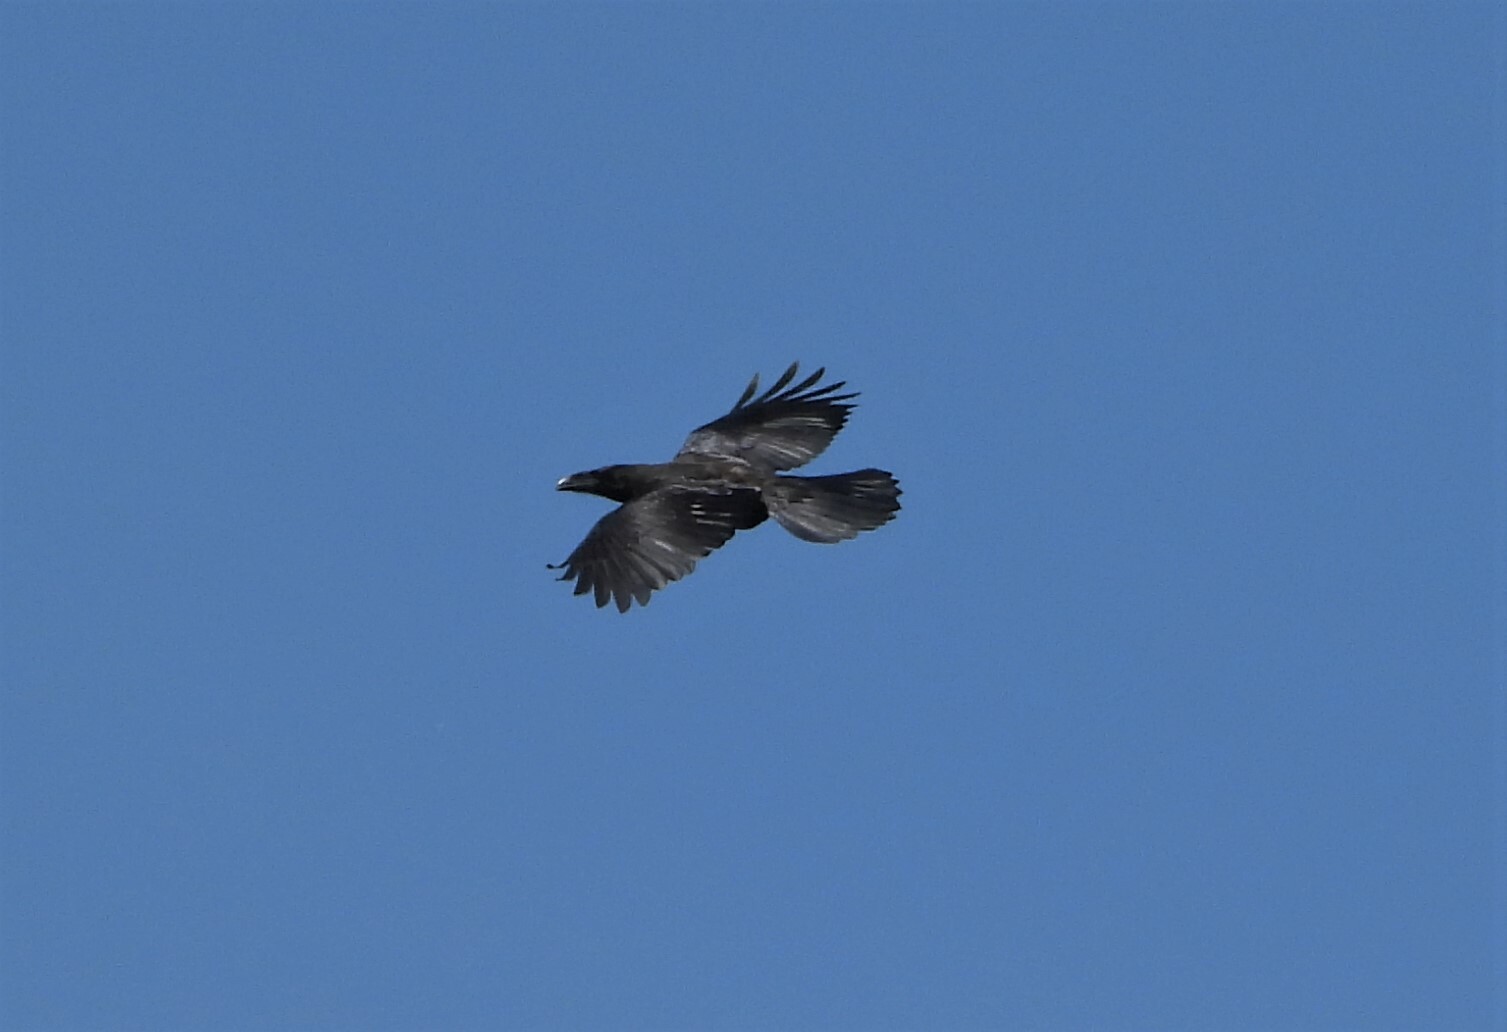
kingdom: Animalia
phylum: Chordata
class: Aves
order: Passeriformes
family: Corvidae
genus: Corvus
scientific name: Corvus corax
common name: Common raven
